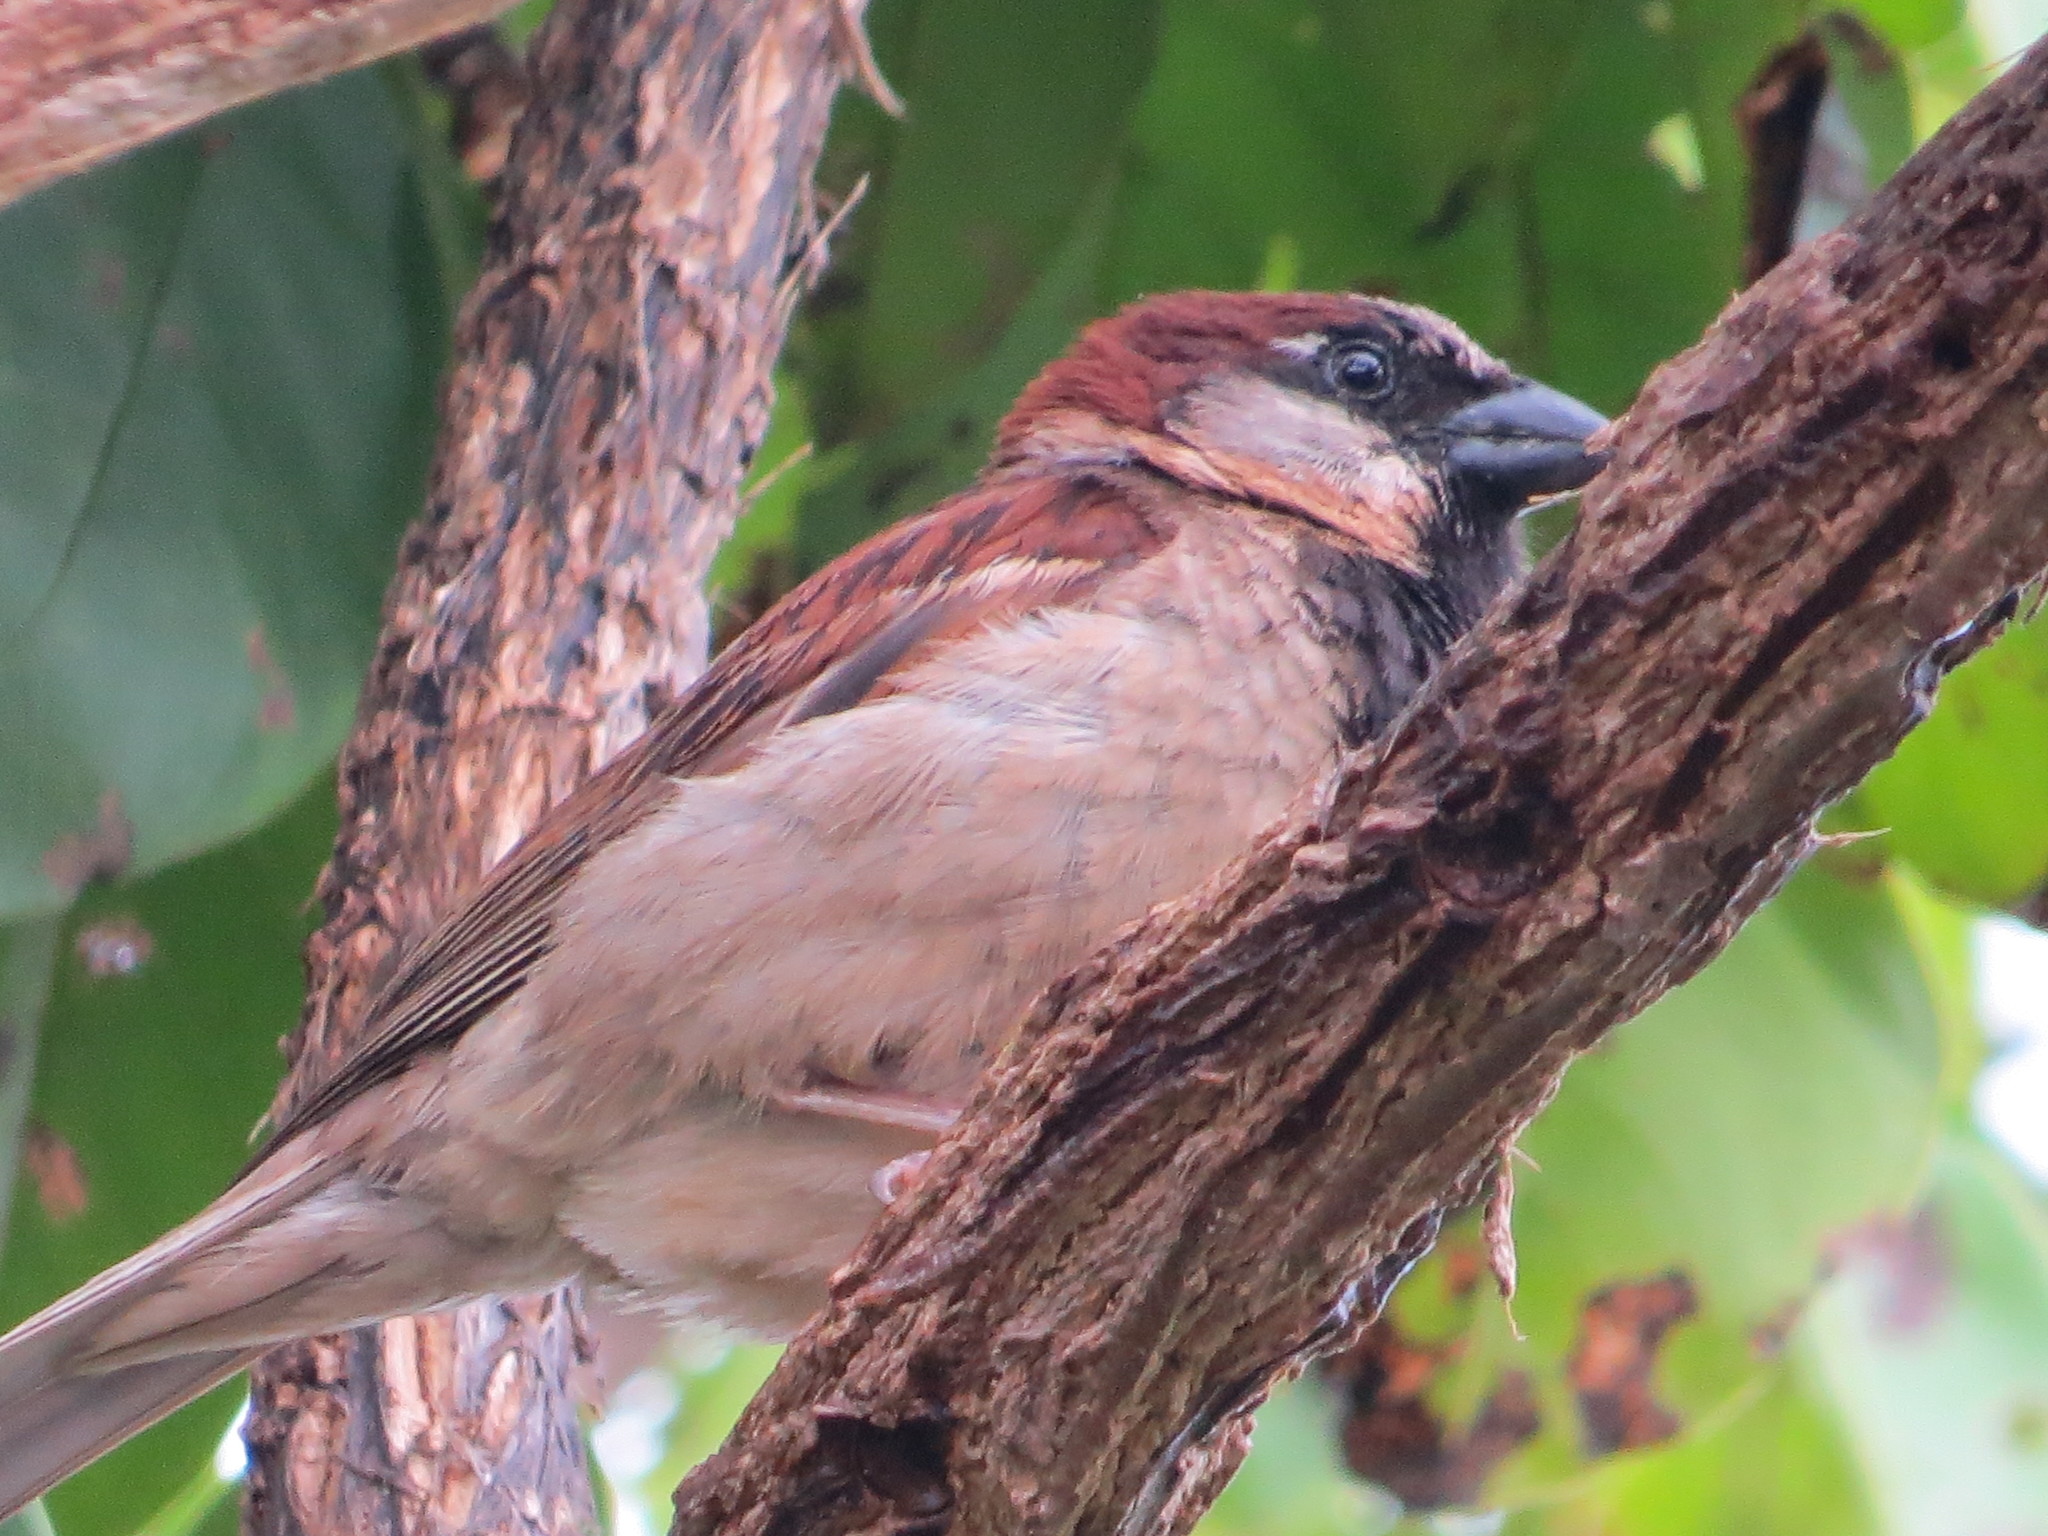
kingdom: Animalia
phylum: Chordata
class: Aves
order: Passeriformes
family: Passeridae
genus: Passer
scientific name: Passer domesticus
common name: House sparrow
